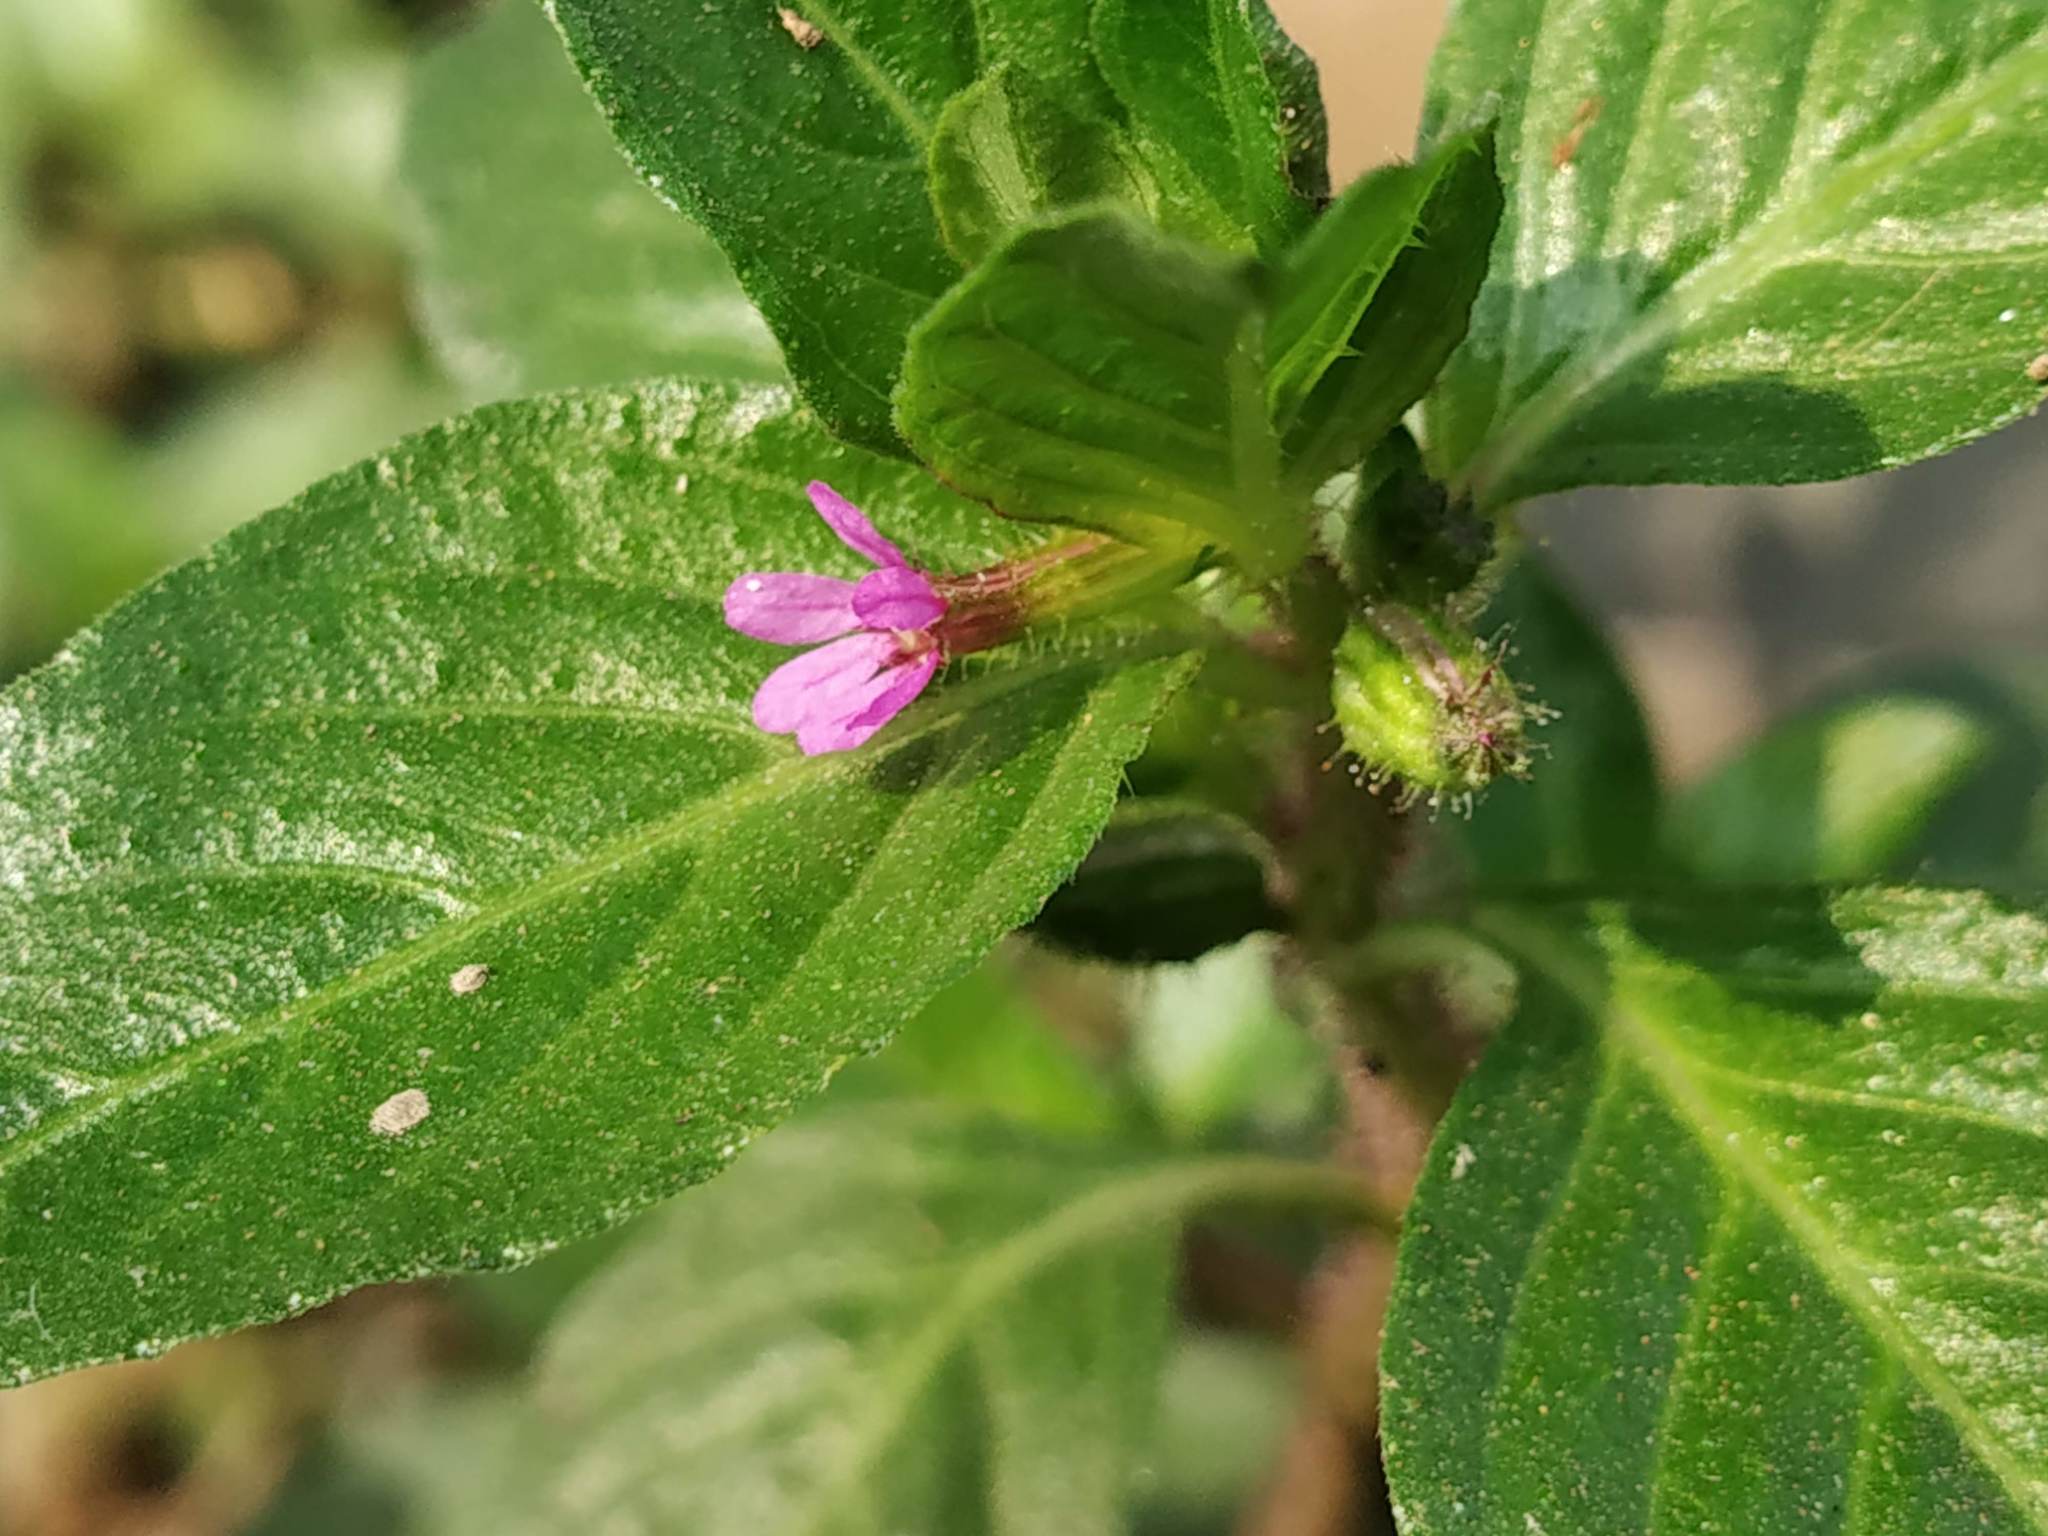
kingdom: Plantae
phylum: Tracheophyta
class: Magnoliopsida
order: Myrtales
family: Lythraceae
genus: Cuphea
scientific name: Cuphea carthagenensis
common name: Colombian waxweed
